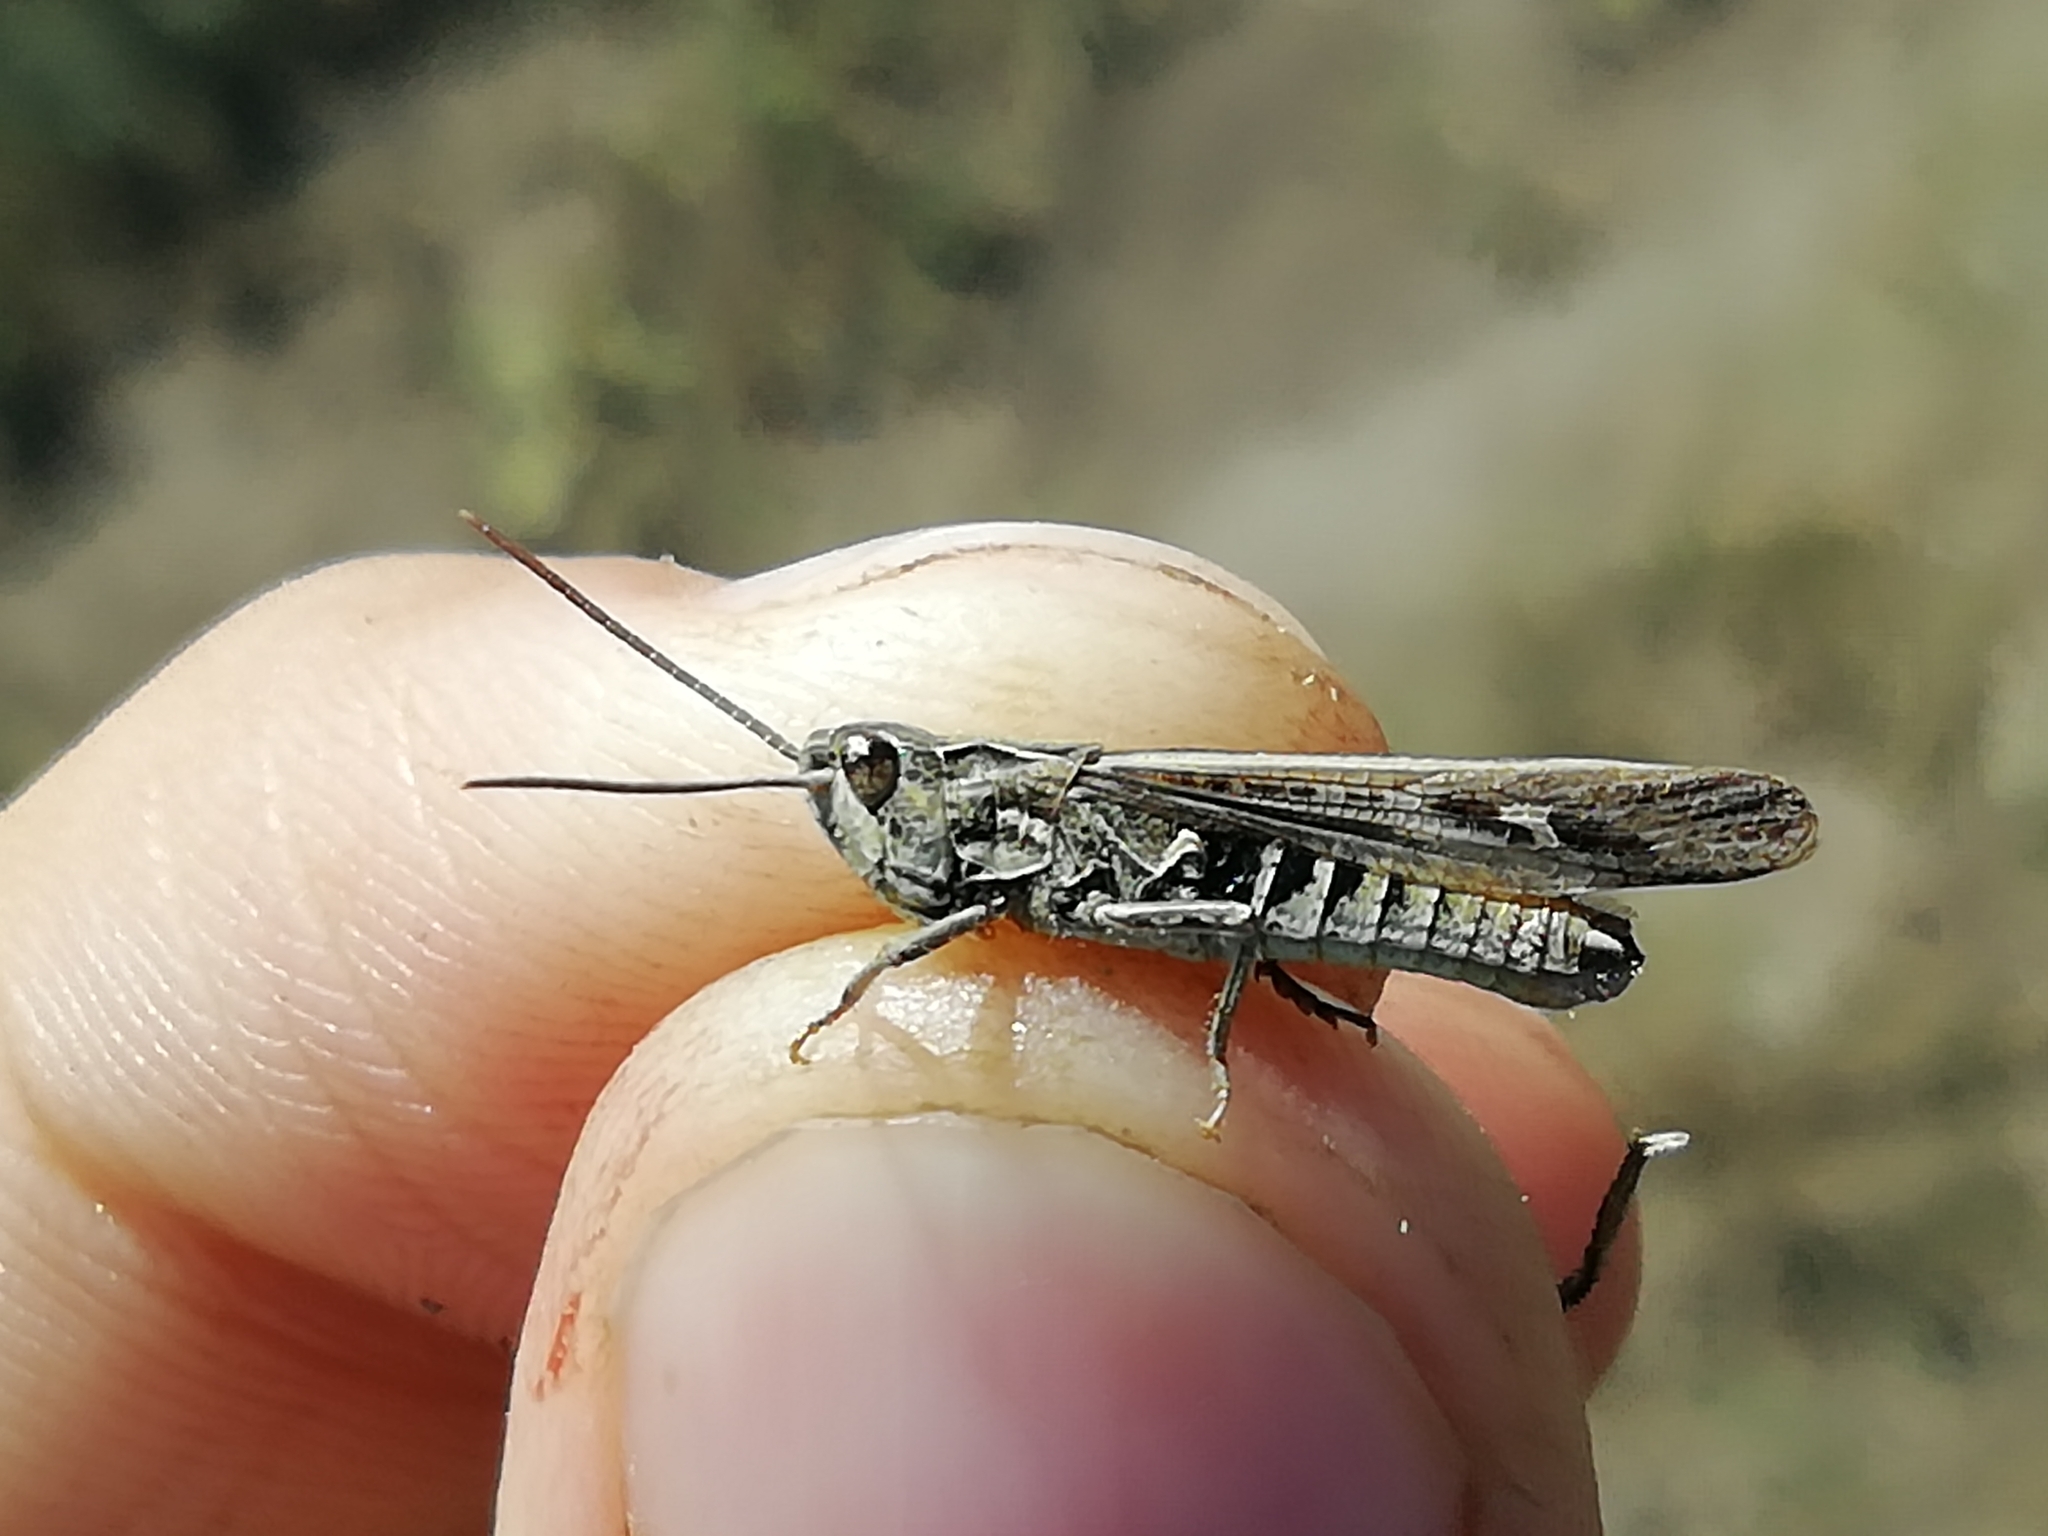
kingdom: Animalia
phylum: Arthropoda
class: Insecta
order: Orthoptera
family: Acrididae
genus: Chorthippus
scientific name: Chorthippus mollis
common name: Lesser field grasshopper
